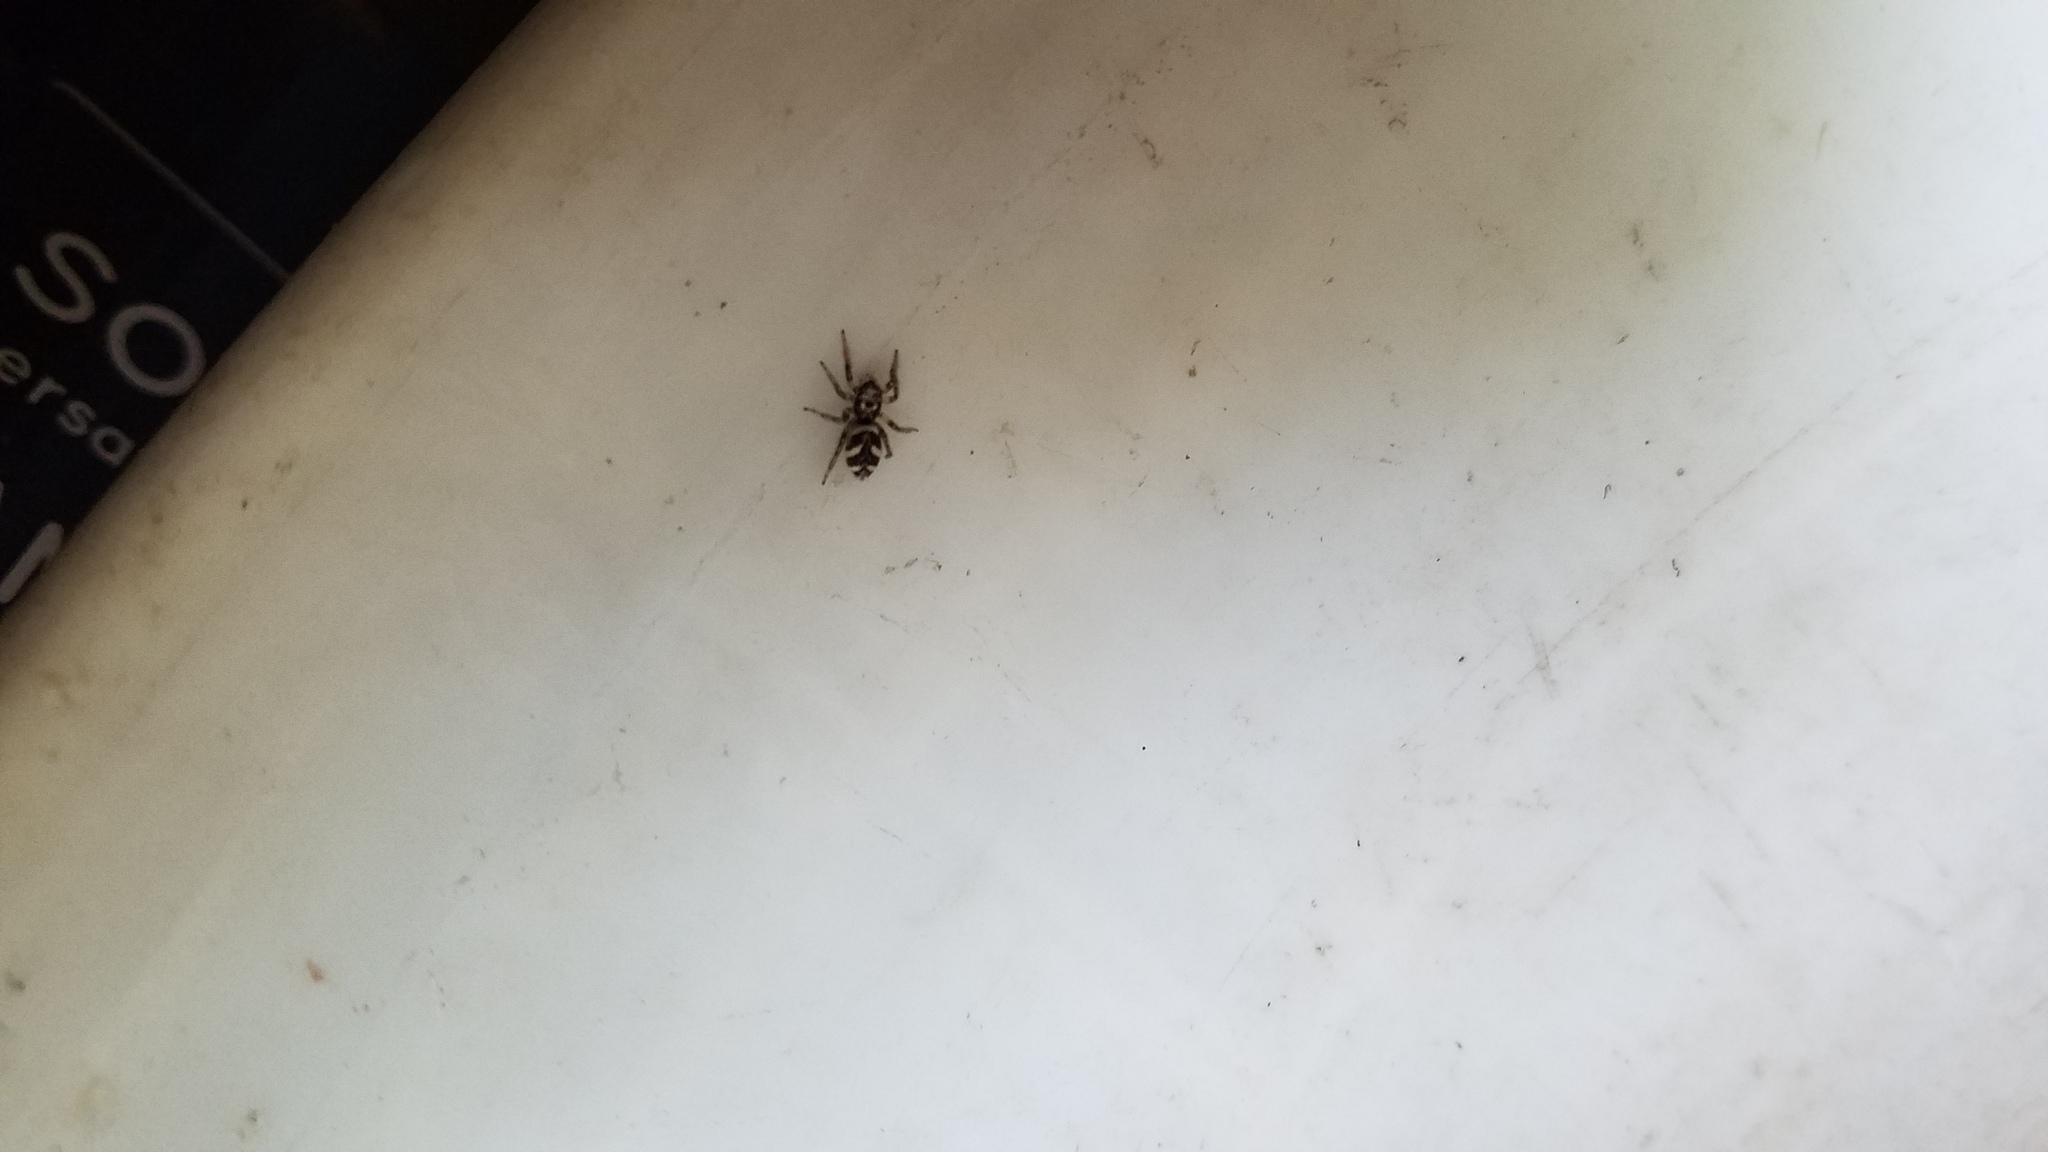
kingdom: Animalia
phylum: Arthropoda
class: Arachnida
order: Araneae
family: Salticidae
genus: Salticus
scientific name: Salticus scenicus
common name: Zebra jumper
